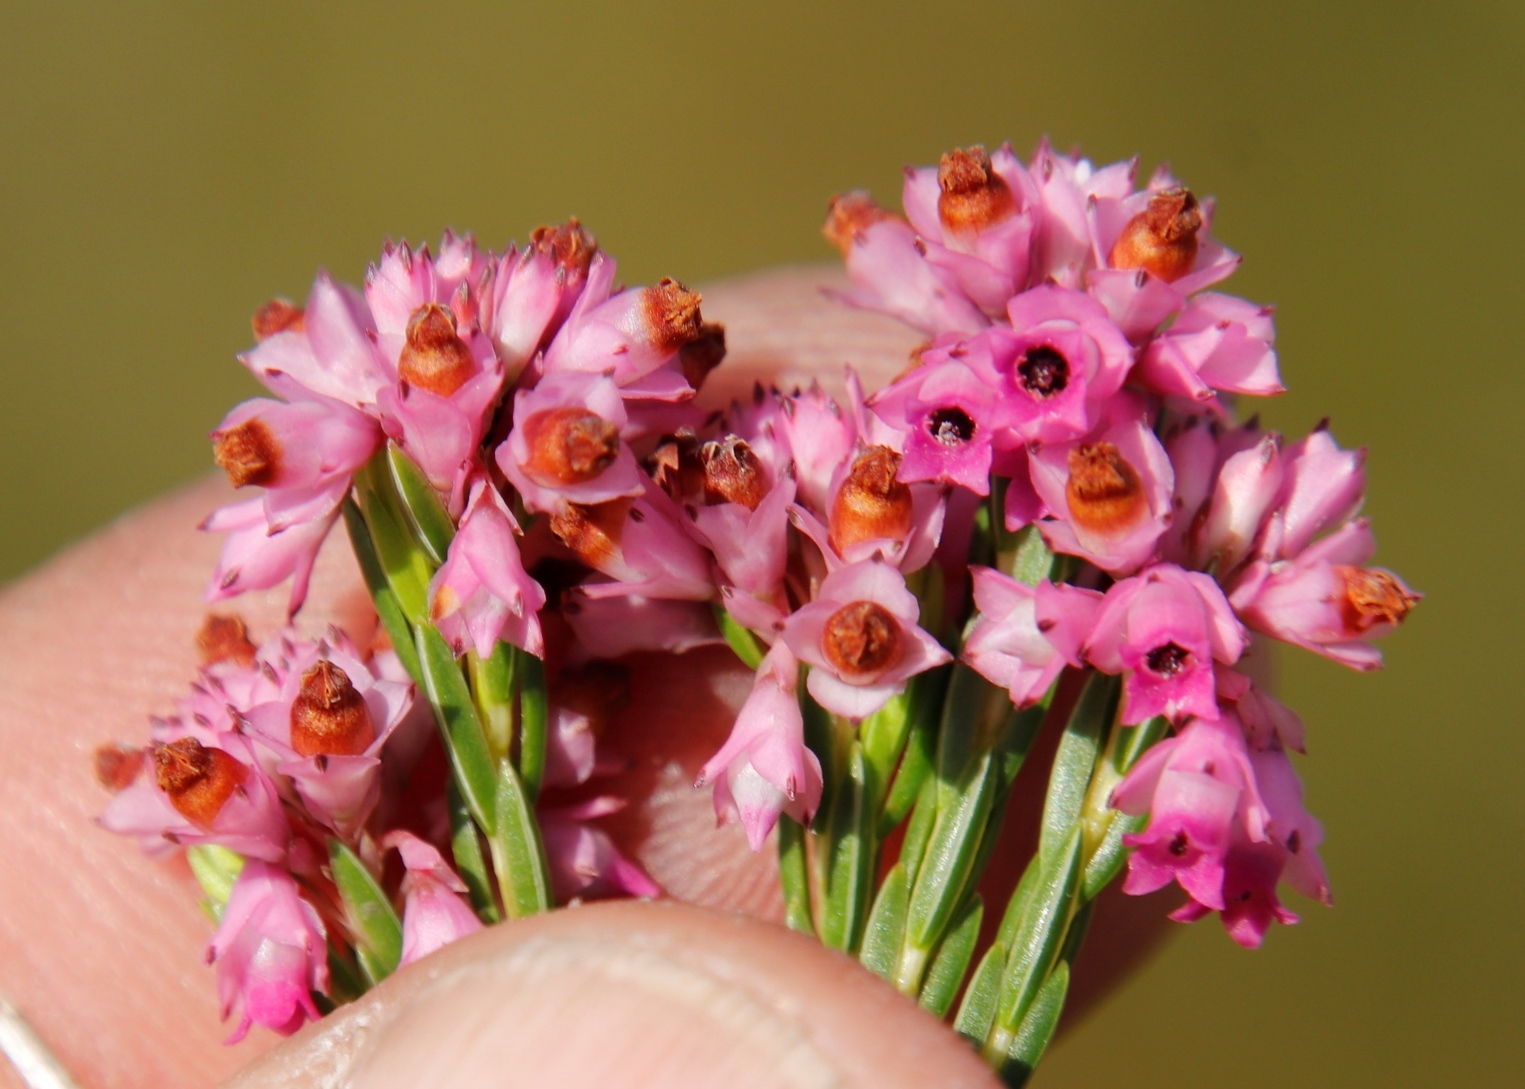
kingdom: Plantae
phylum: Tracheophyta
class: Magnoliopsida
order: Ericales
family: Ericaceae
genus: Erica
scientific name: Erica corifolia
